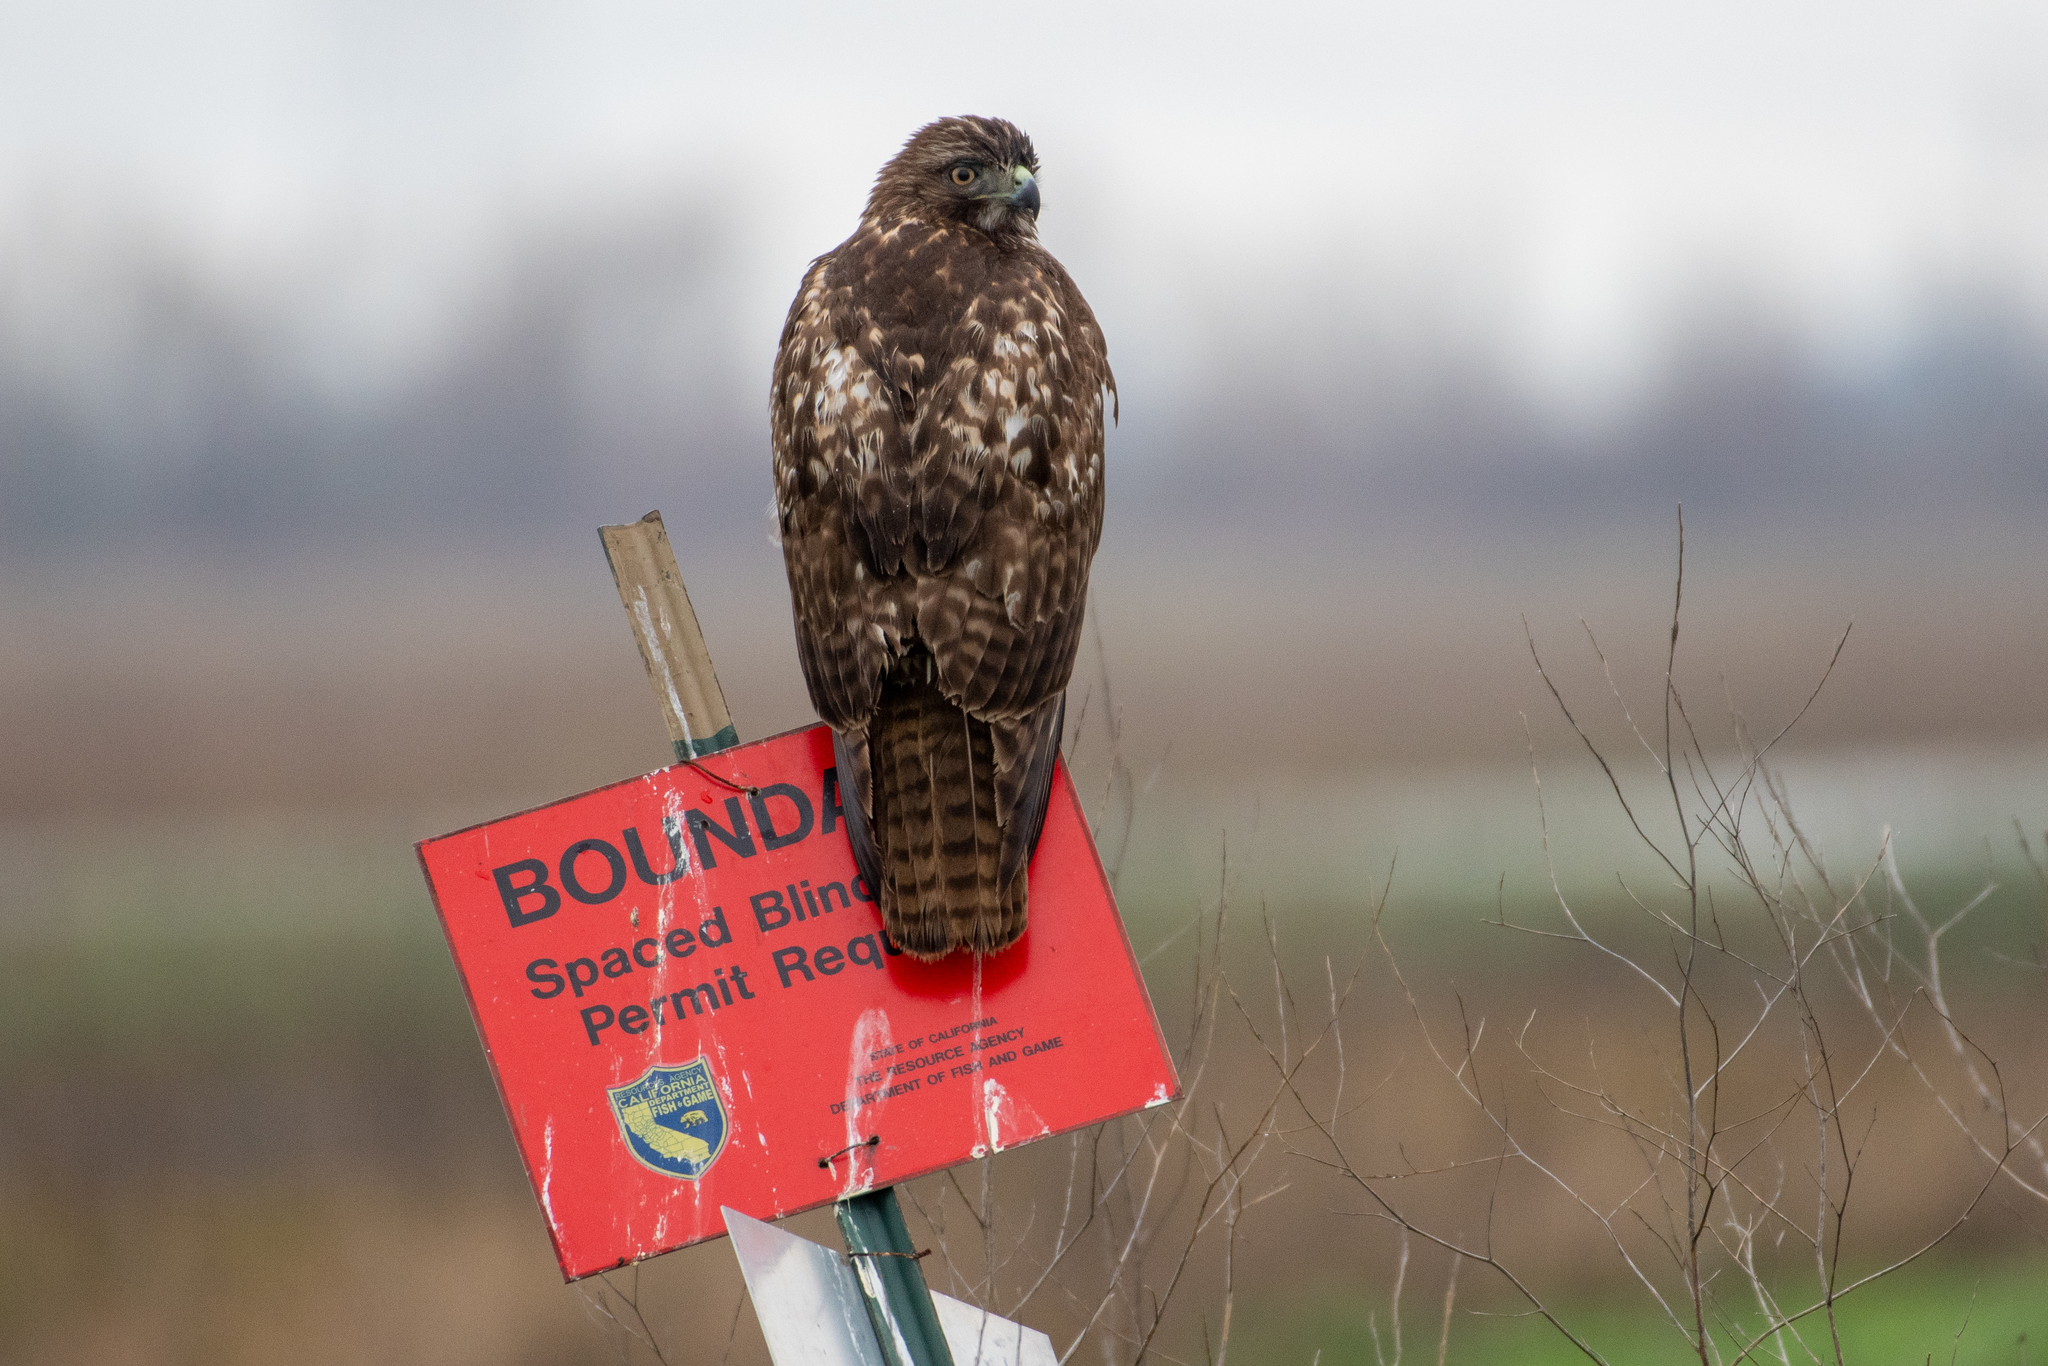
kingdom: Animalia
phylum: Chordata
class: Aves
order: Accipitriformes
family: Accipitridae
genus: Buteo
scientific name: Buteo jamaicensis
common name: Red-tailed hawk
